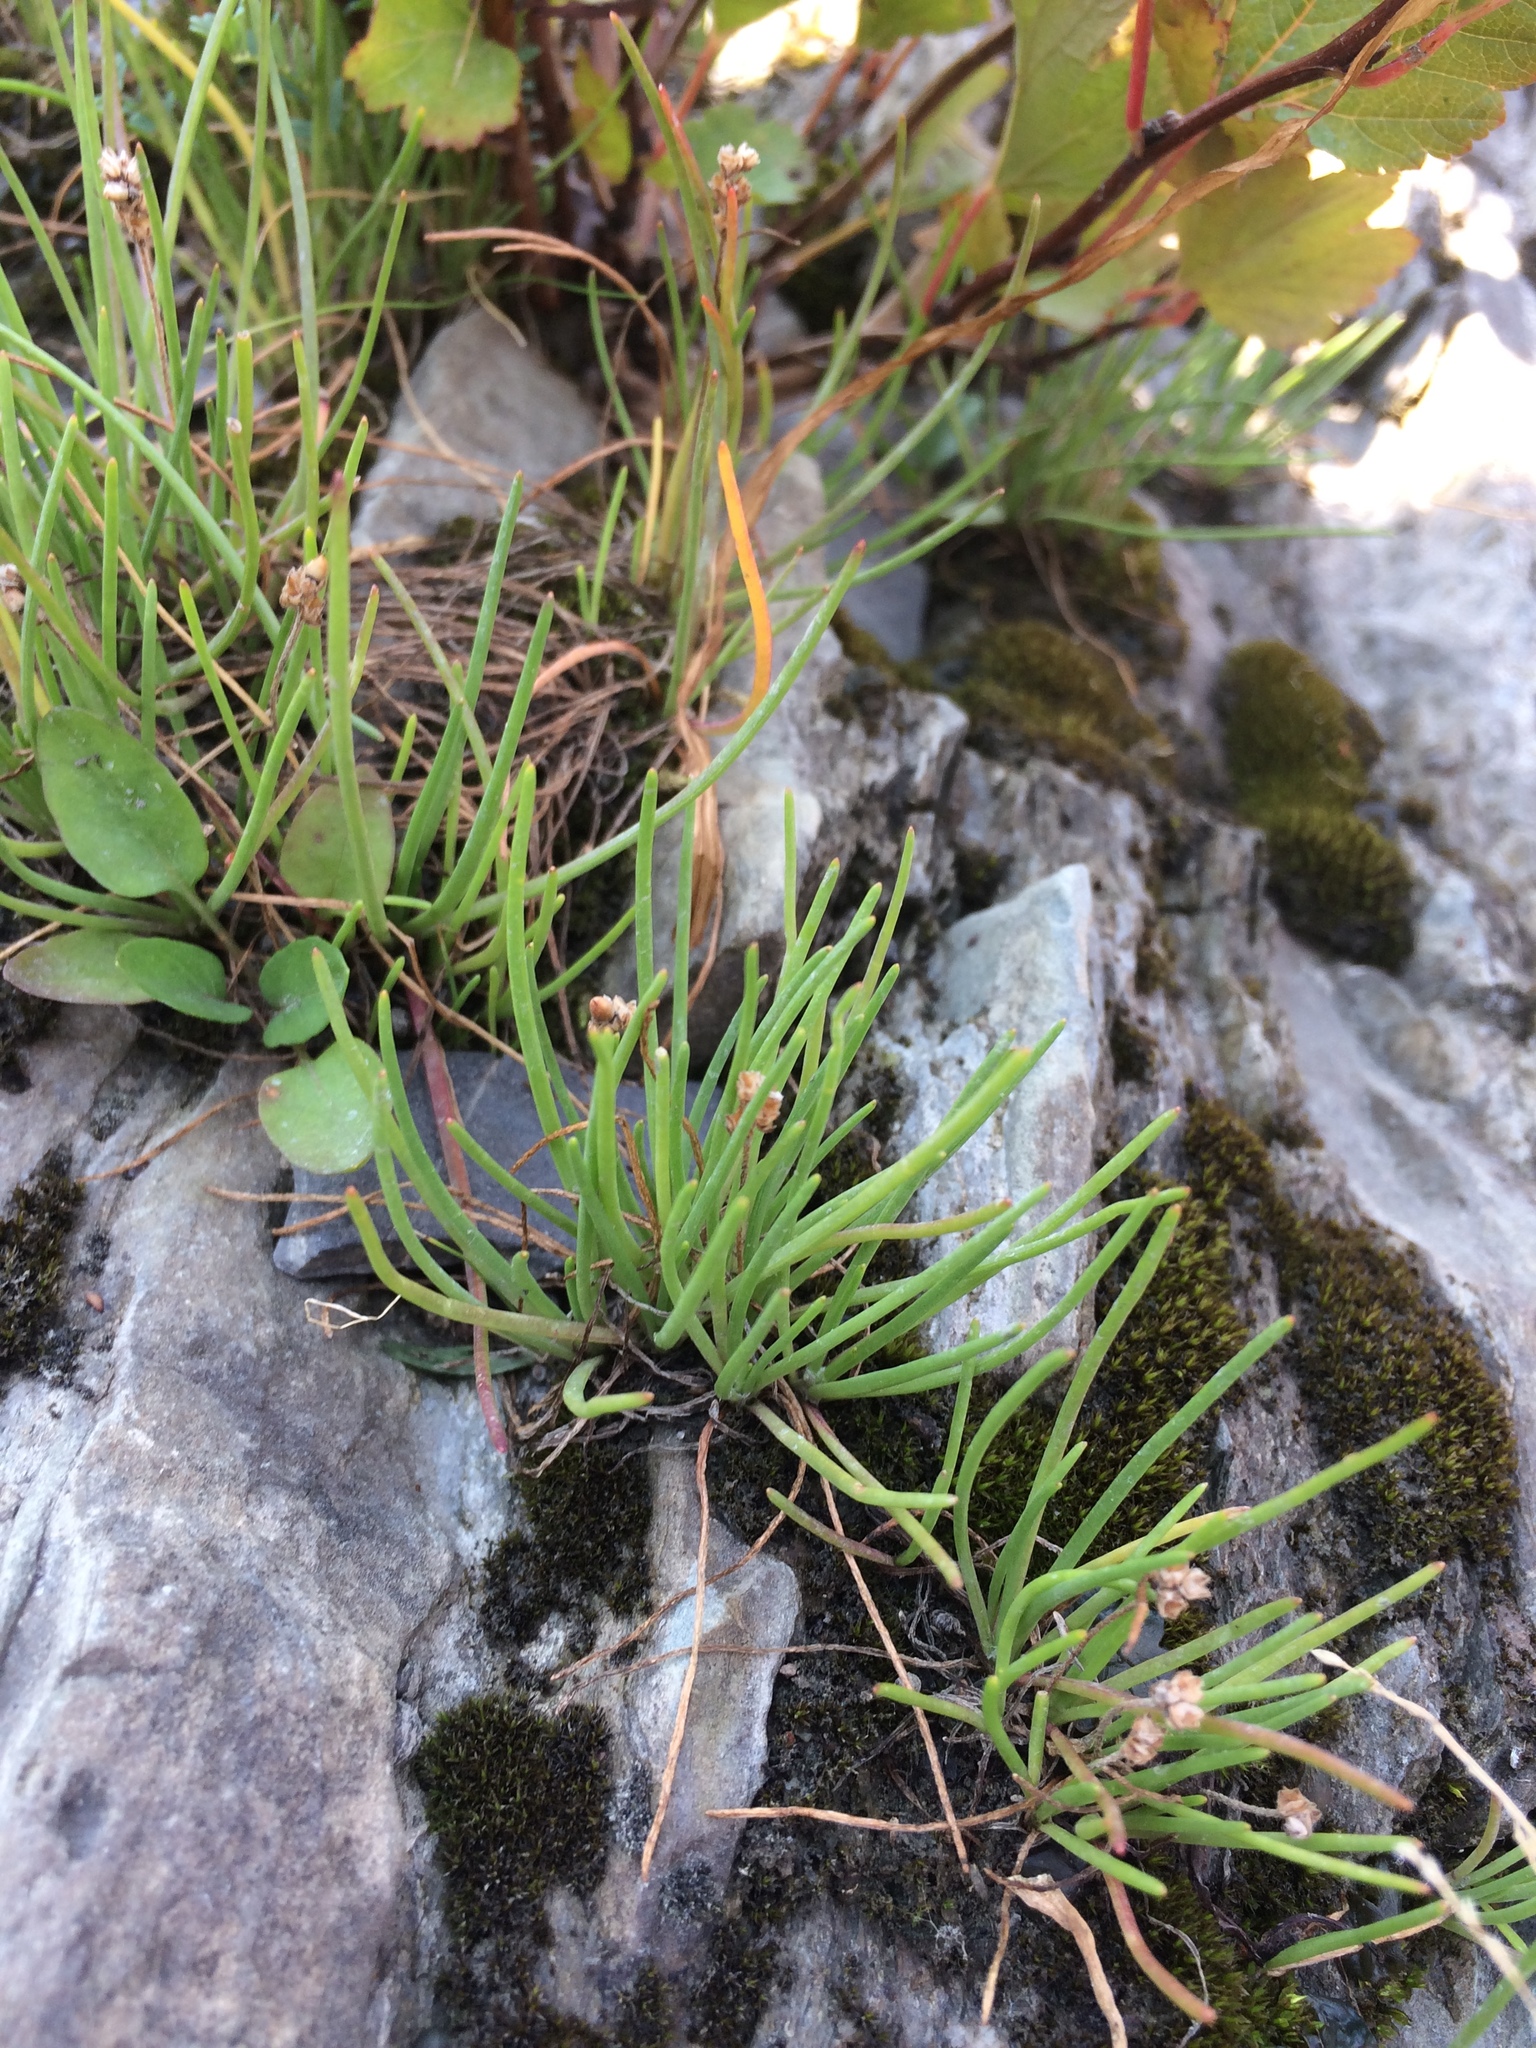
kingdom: Plantae
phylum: Tracheophyta
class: Magnoliopsida
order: Lamiales
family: Plantaginaceae
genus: Plantago
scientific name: Plantago maritima
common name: Sea plantain
